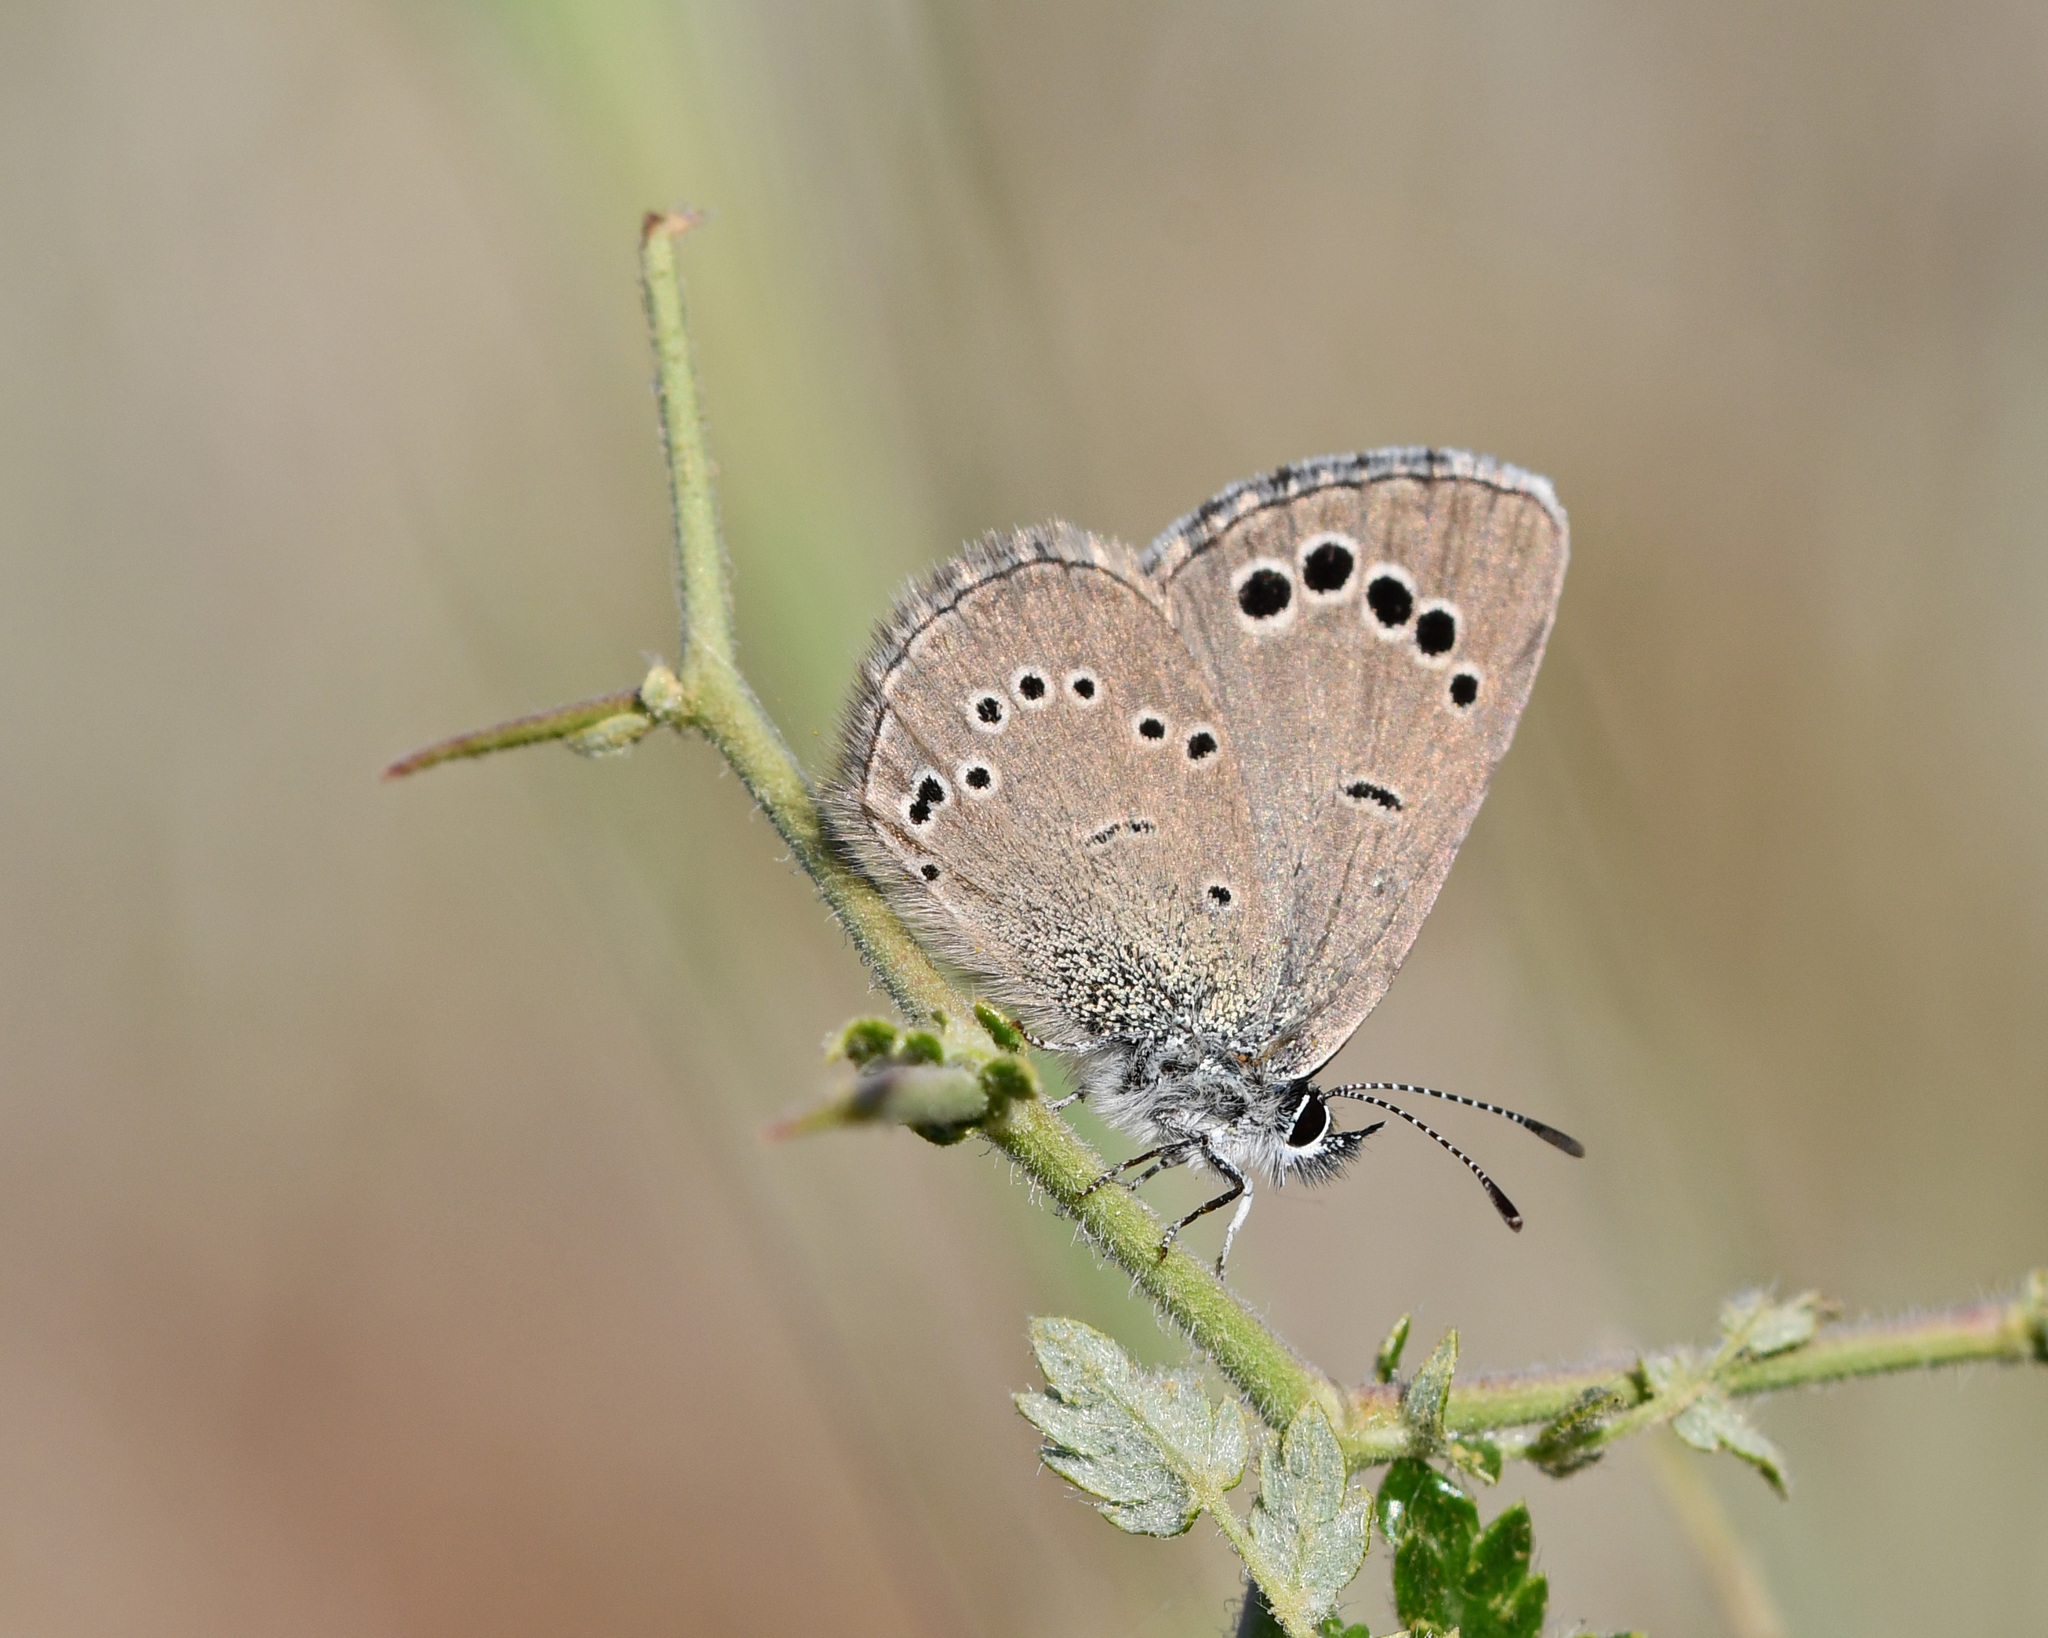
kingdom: Animalia
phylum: Arthropoda
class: Insecta
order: Lepidoptera
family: Lycaenidae
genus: Glaucopsyche
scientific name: Glaucopsyche paphos
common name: Paphos blue
